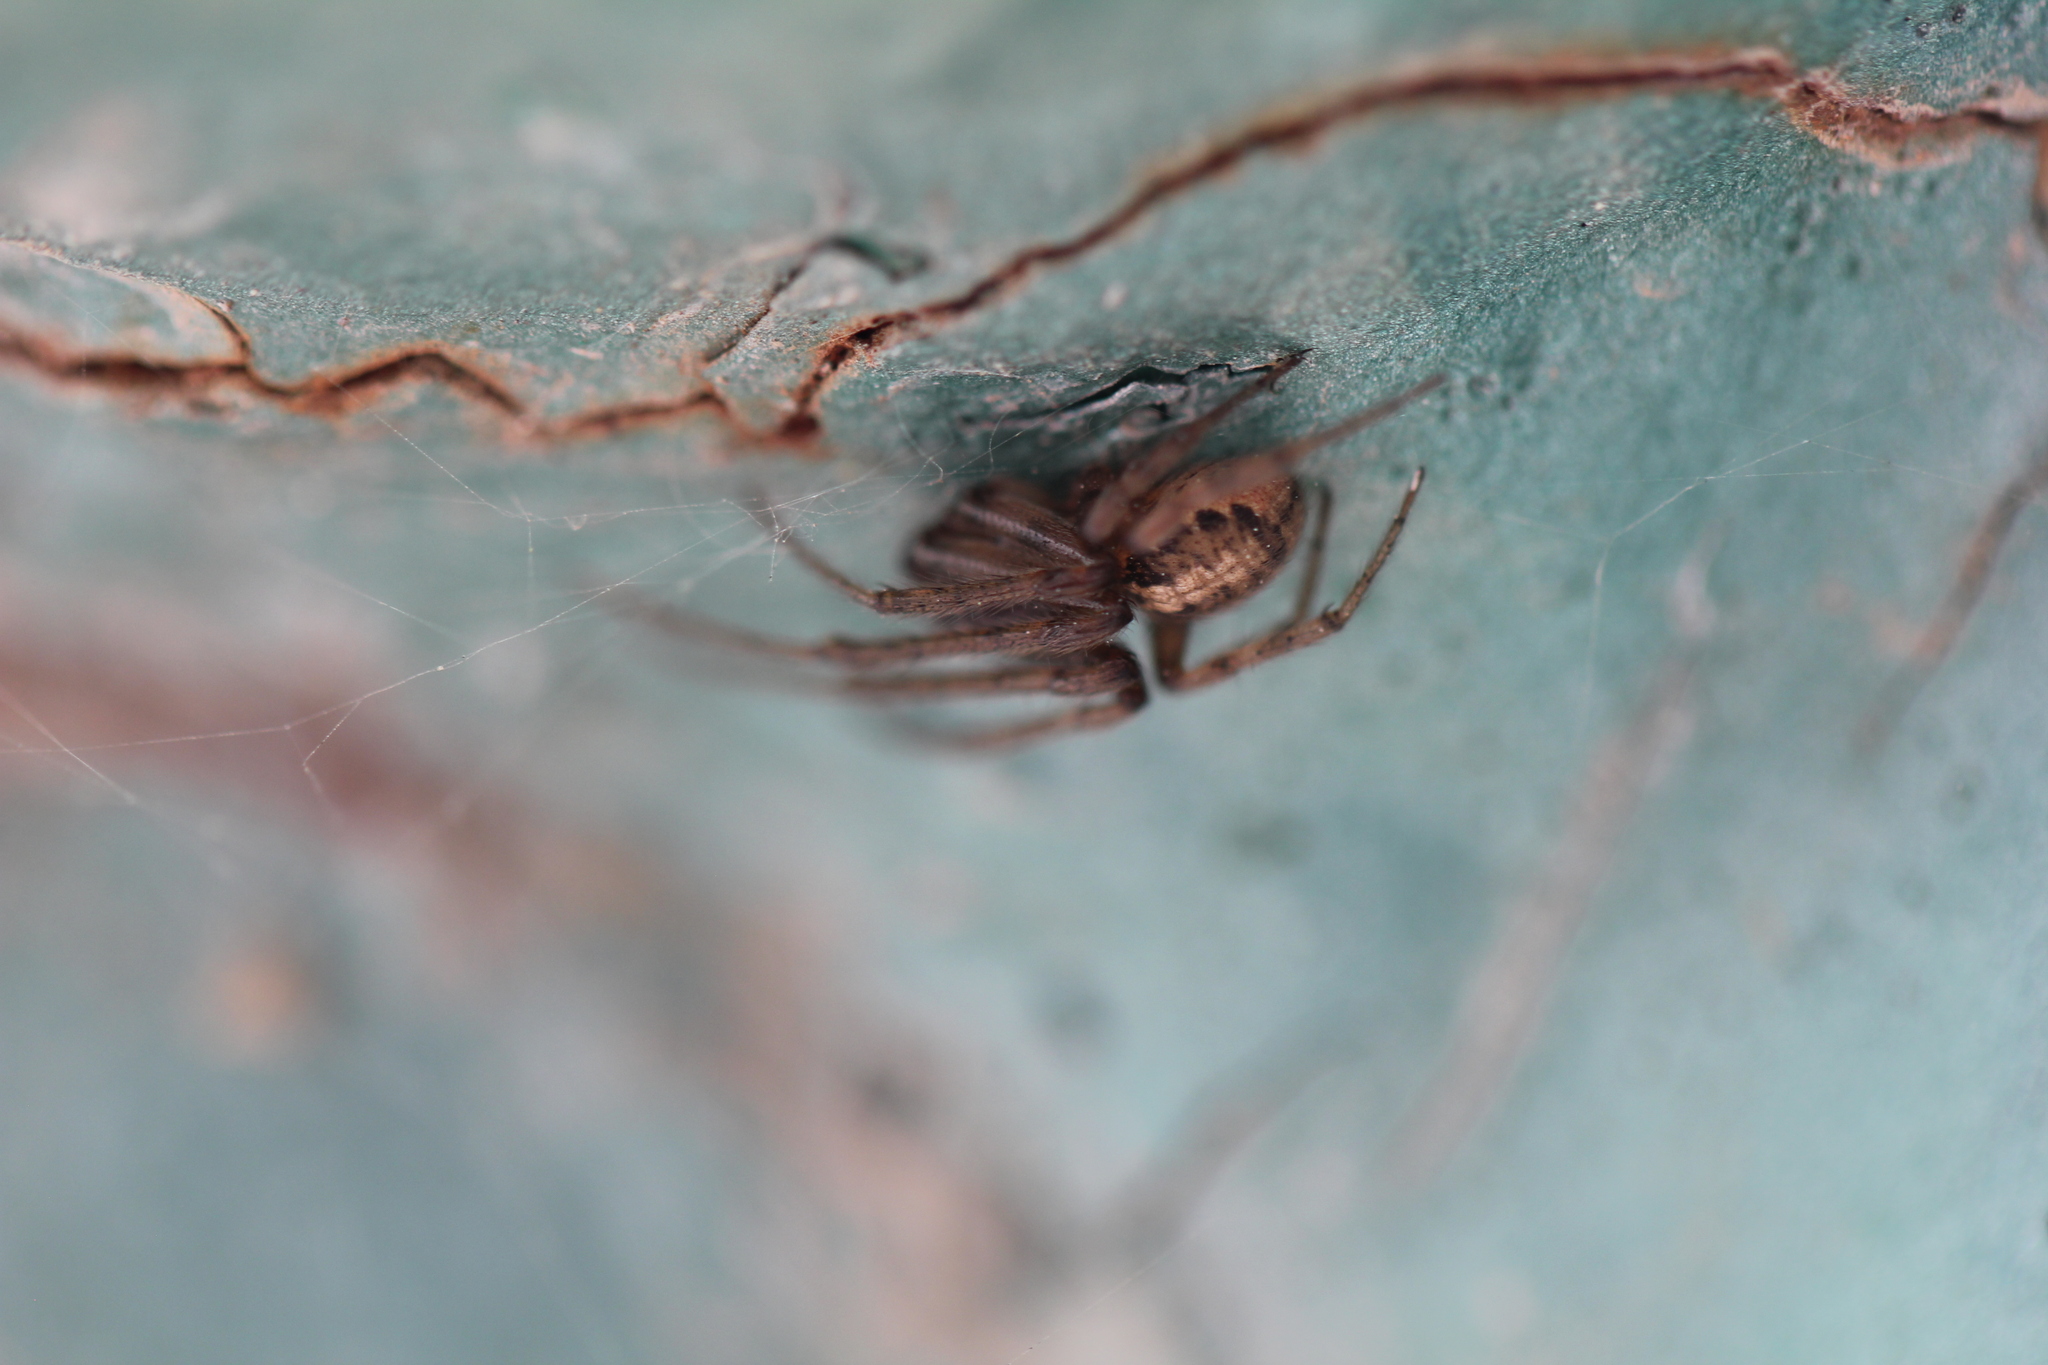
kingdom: Animalia
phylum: Arthropoda
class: Arachnida
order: Araneae
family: Araneidae
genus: Leviellus
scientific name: Leviellus caspicus
